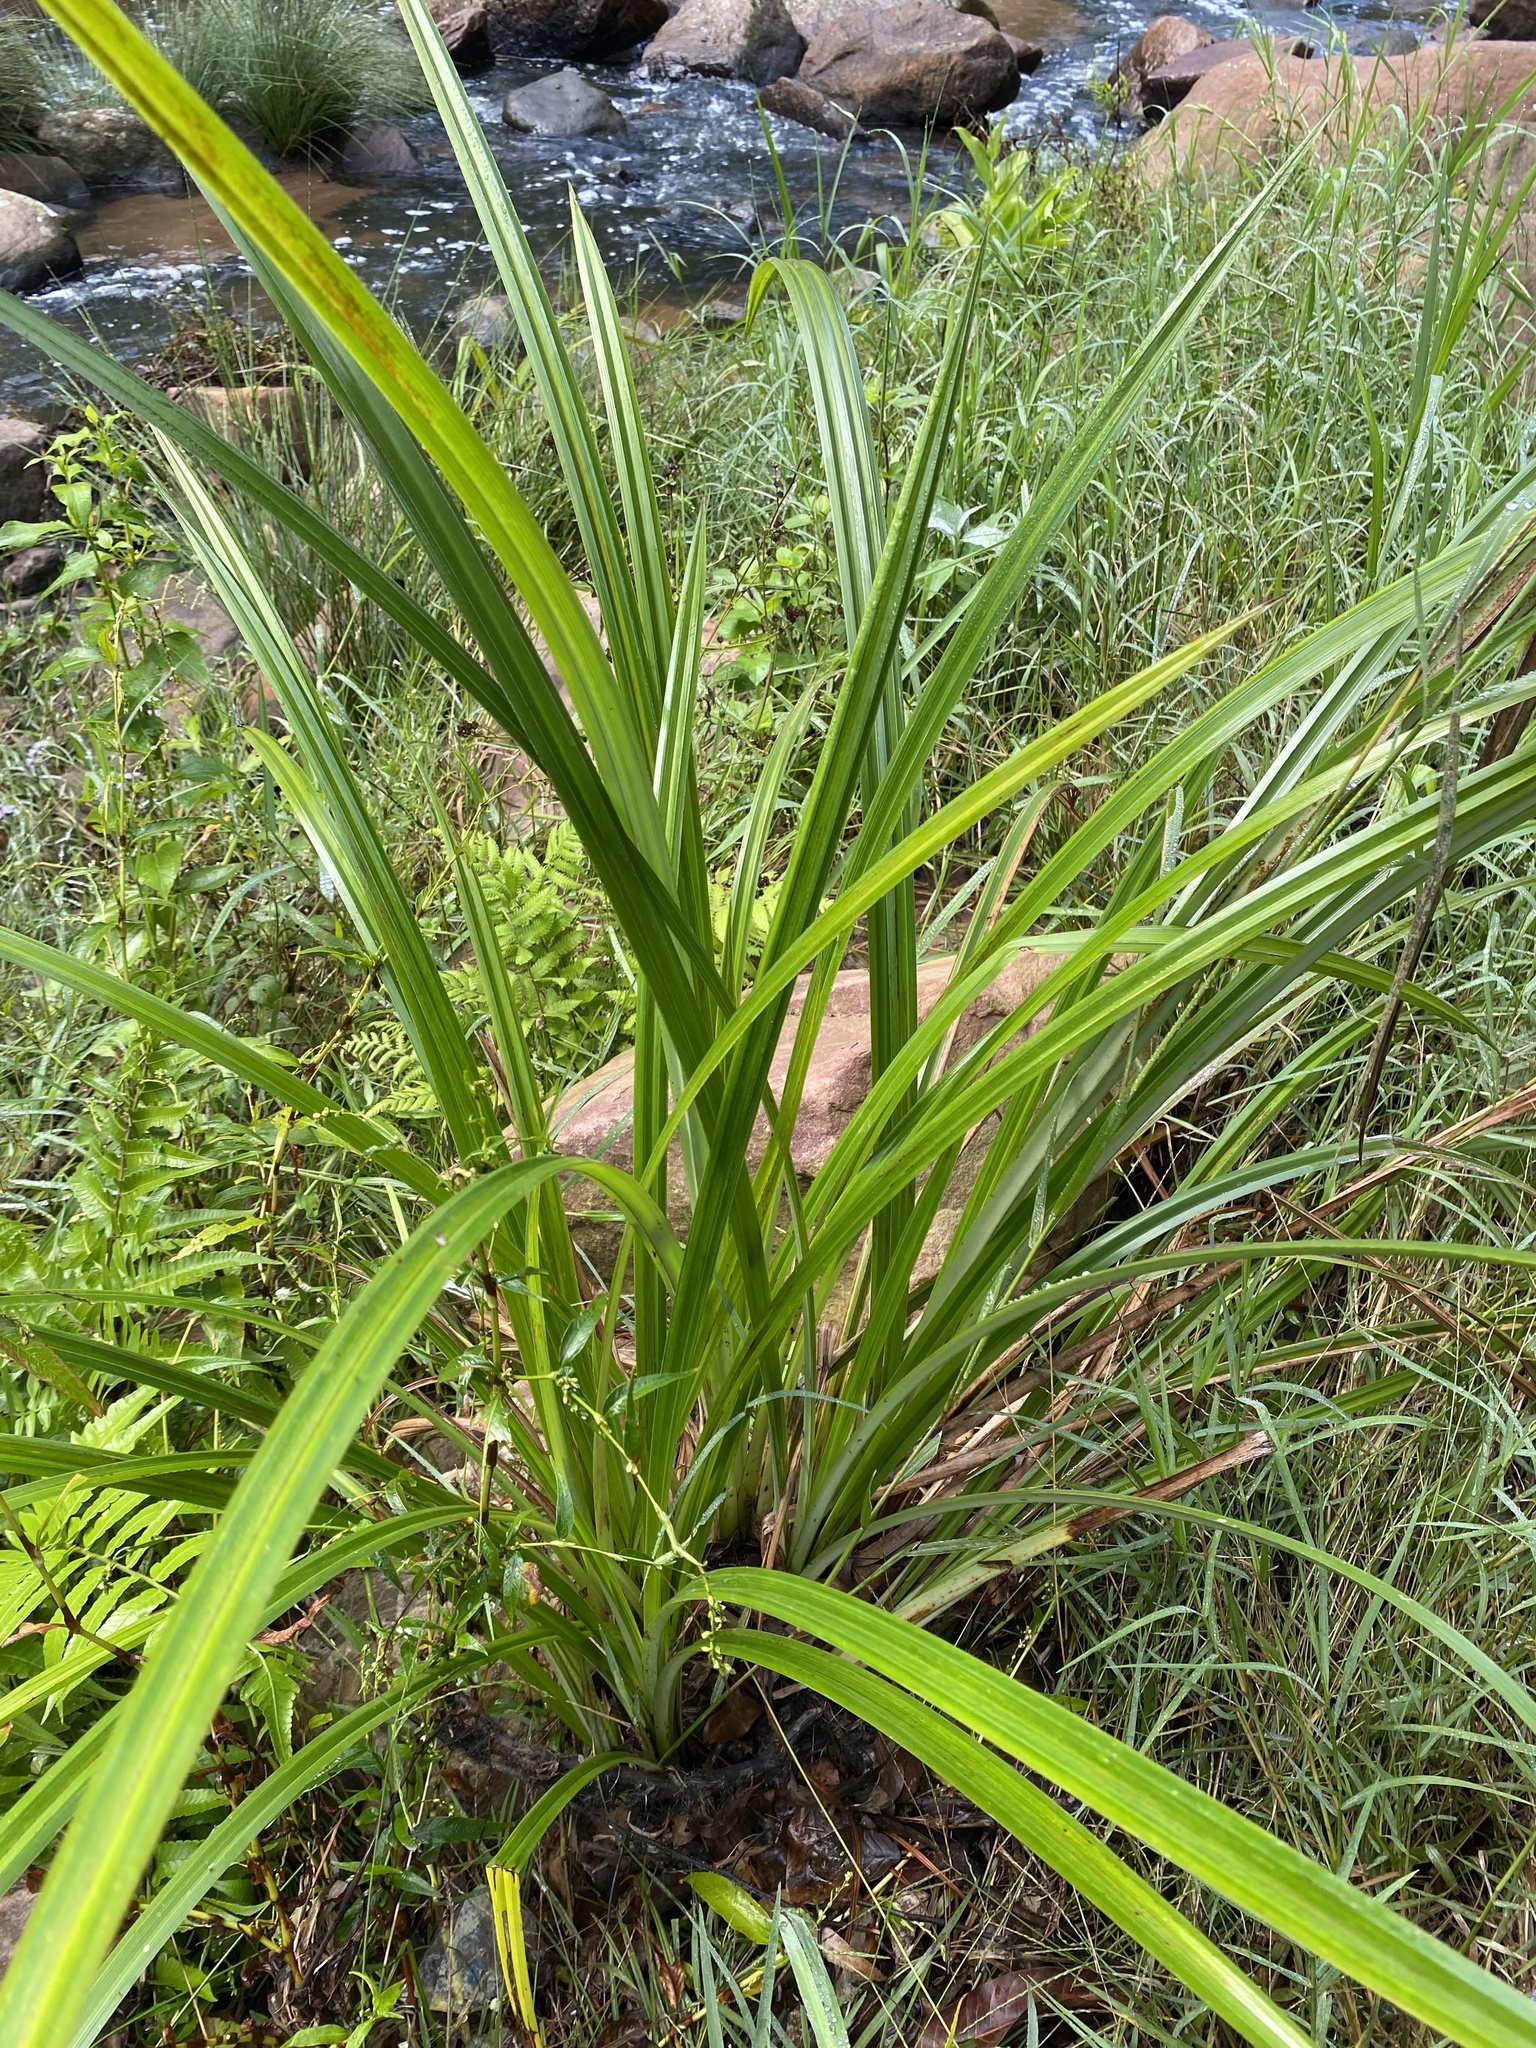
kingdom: Plantae
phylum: Tracheophyta
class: Liliopsida
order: Poales
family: Cyperaceae
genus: Cyperus
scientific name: Cyperus dives
